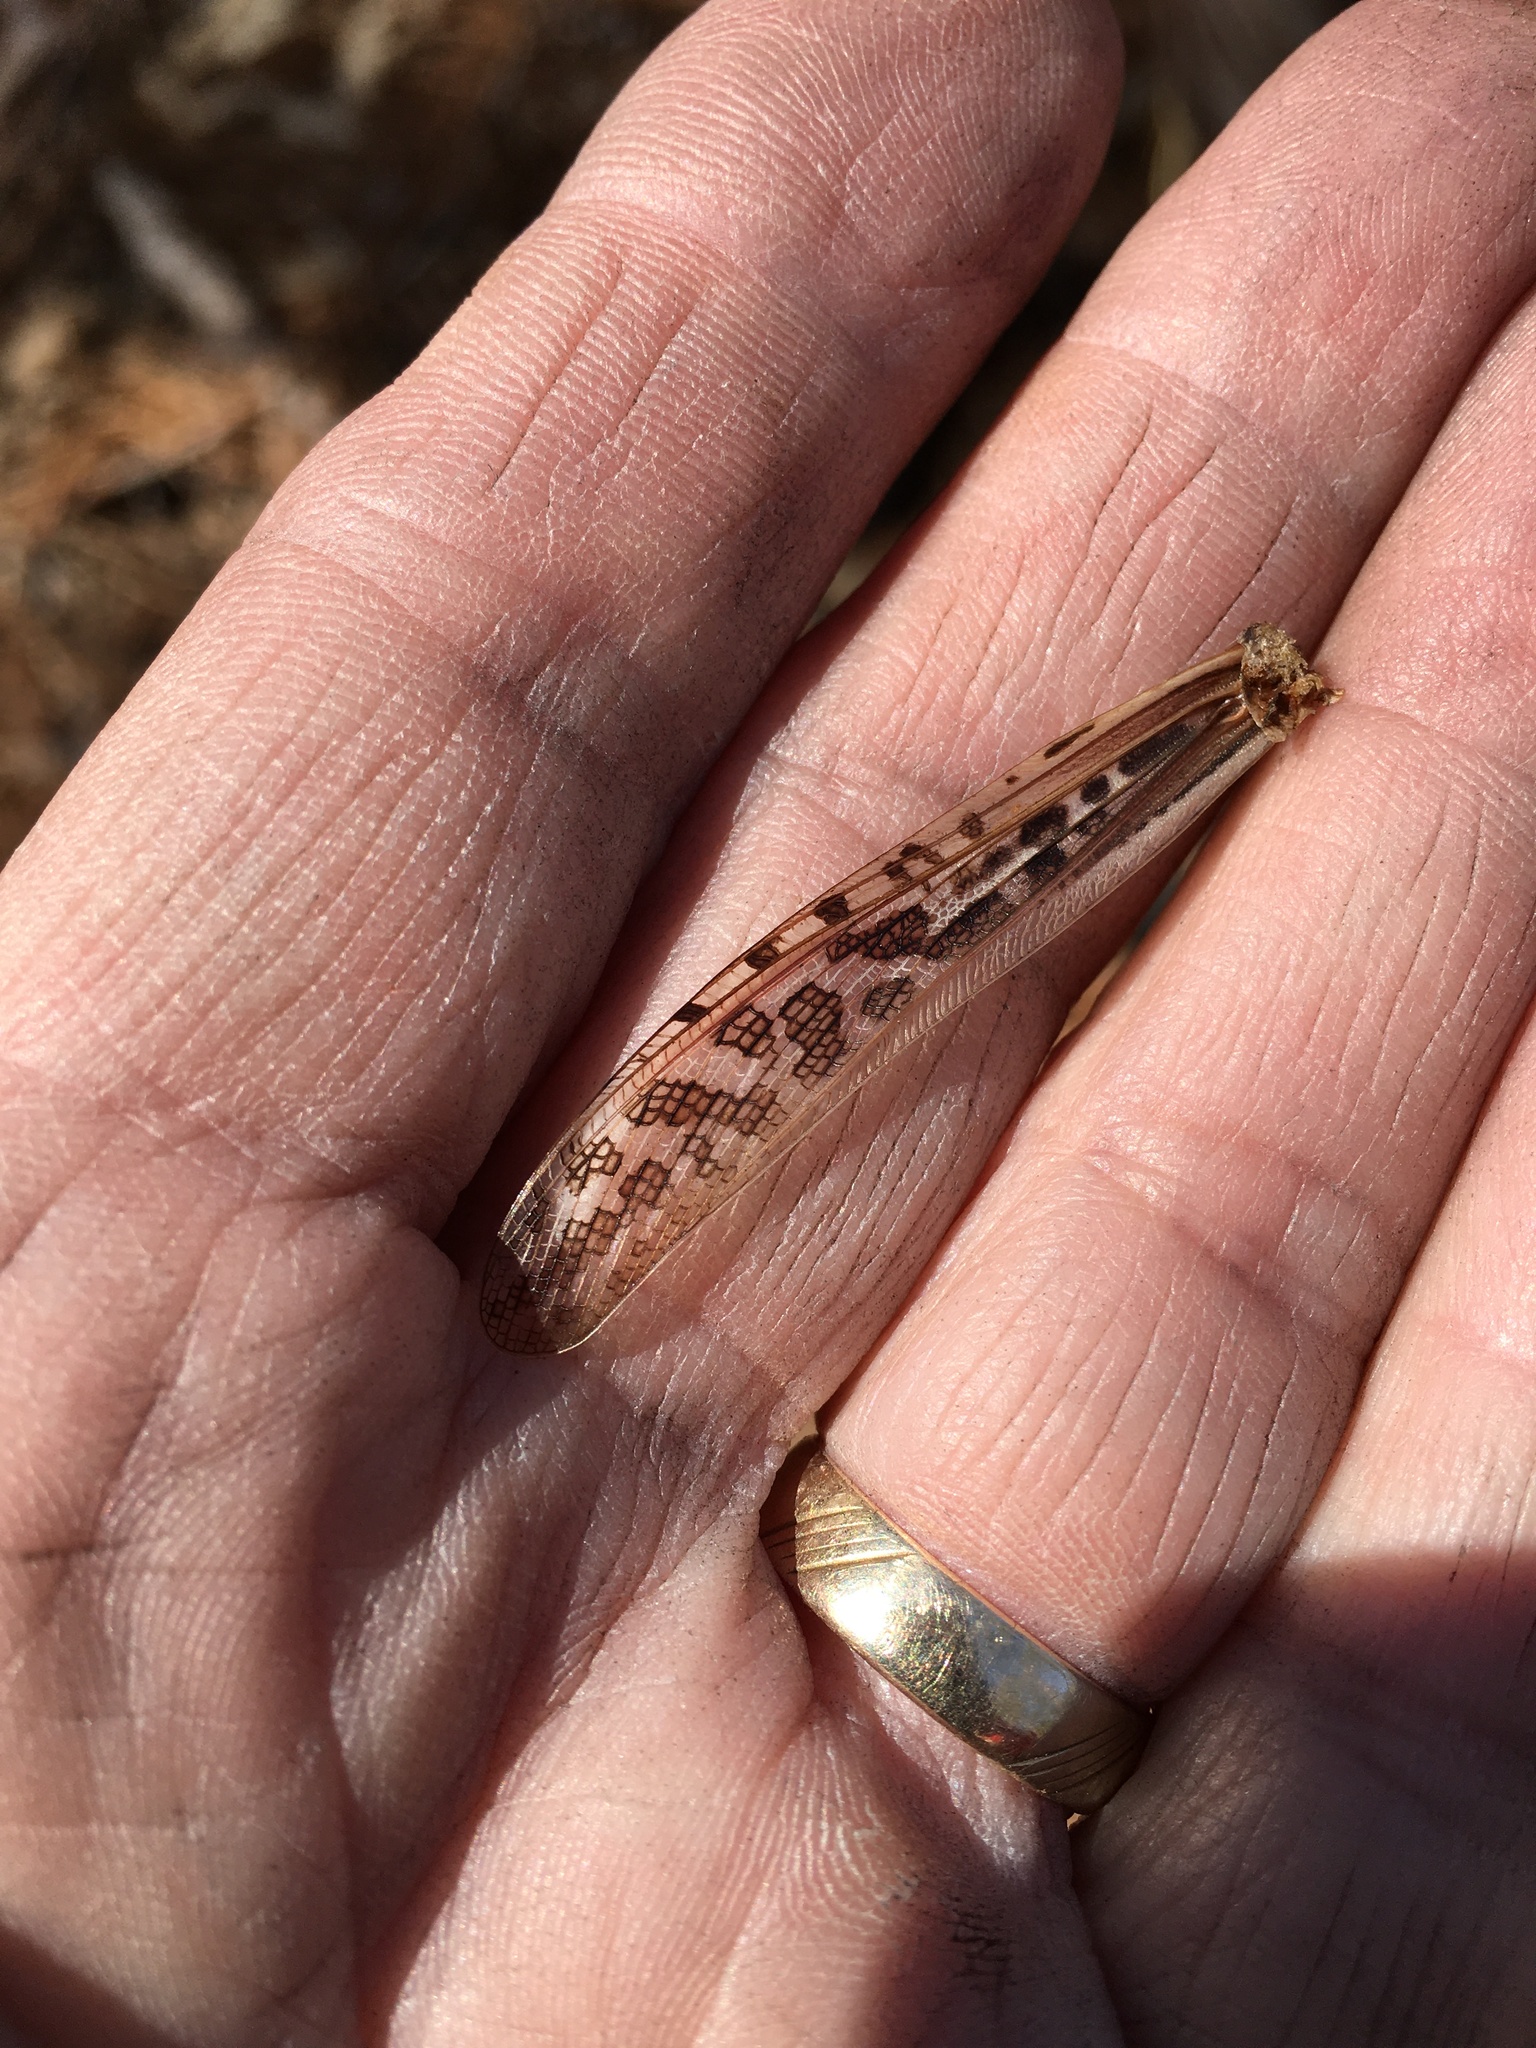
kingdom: Animalia
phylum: Arthropoda
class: Insecta
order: Orthoptera
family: Acrididae
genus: Schistocerca
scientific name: Schistocerca americana
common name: American bird locust
